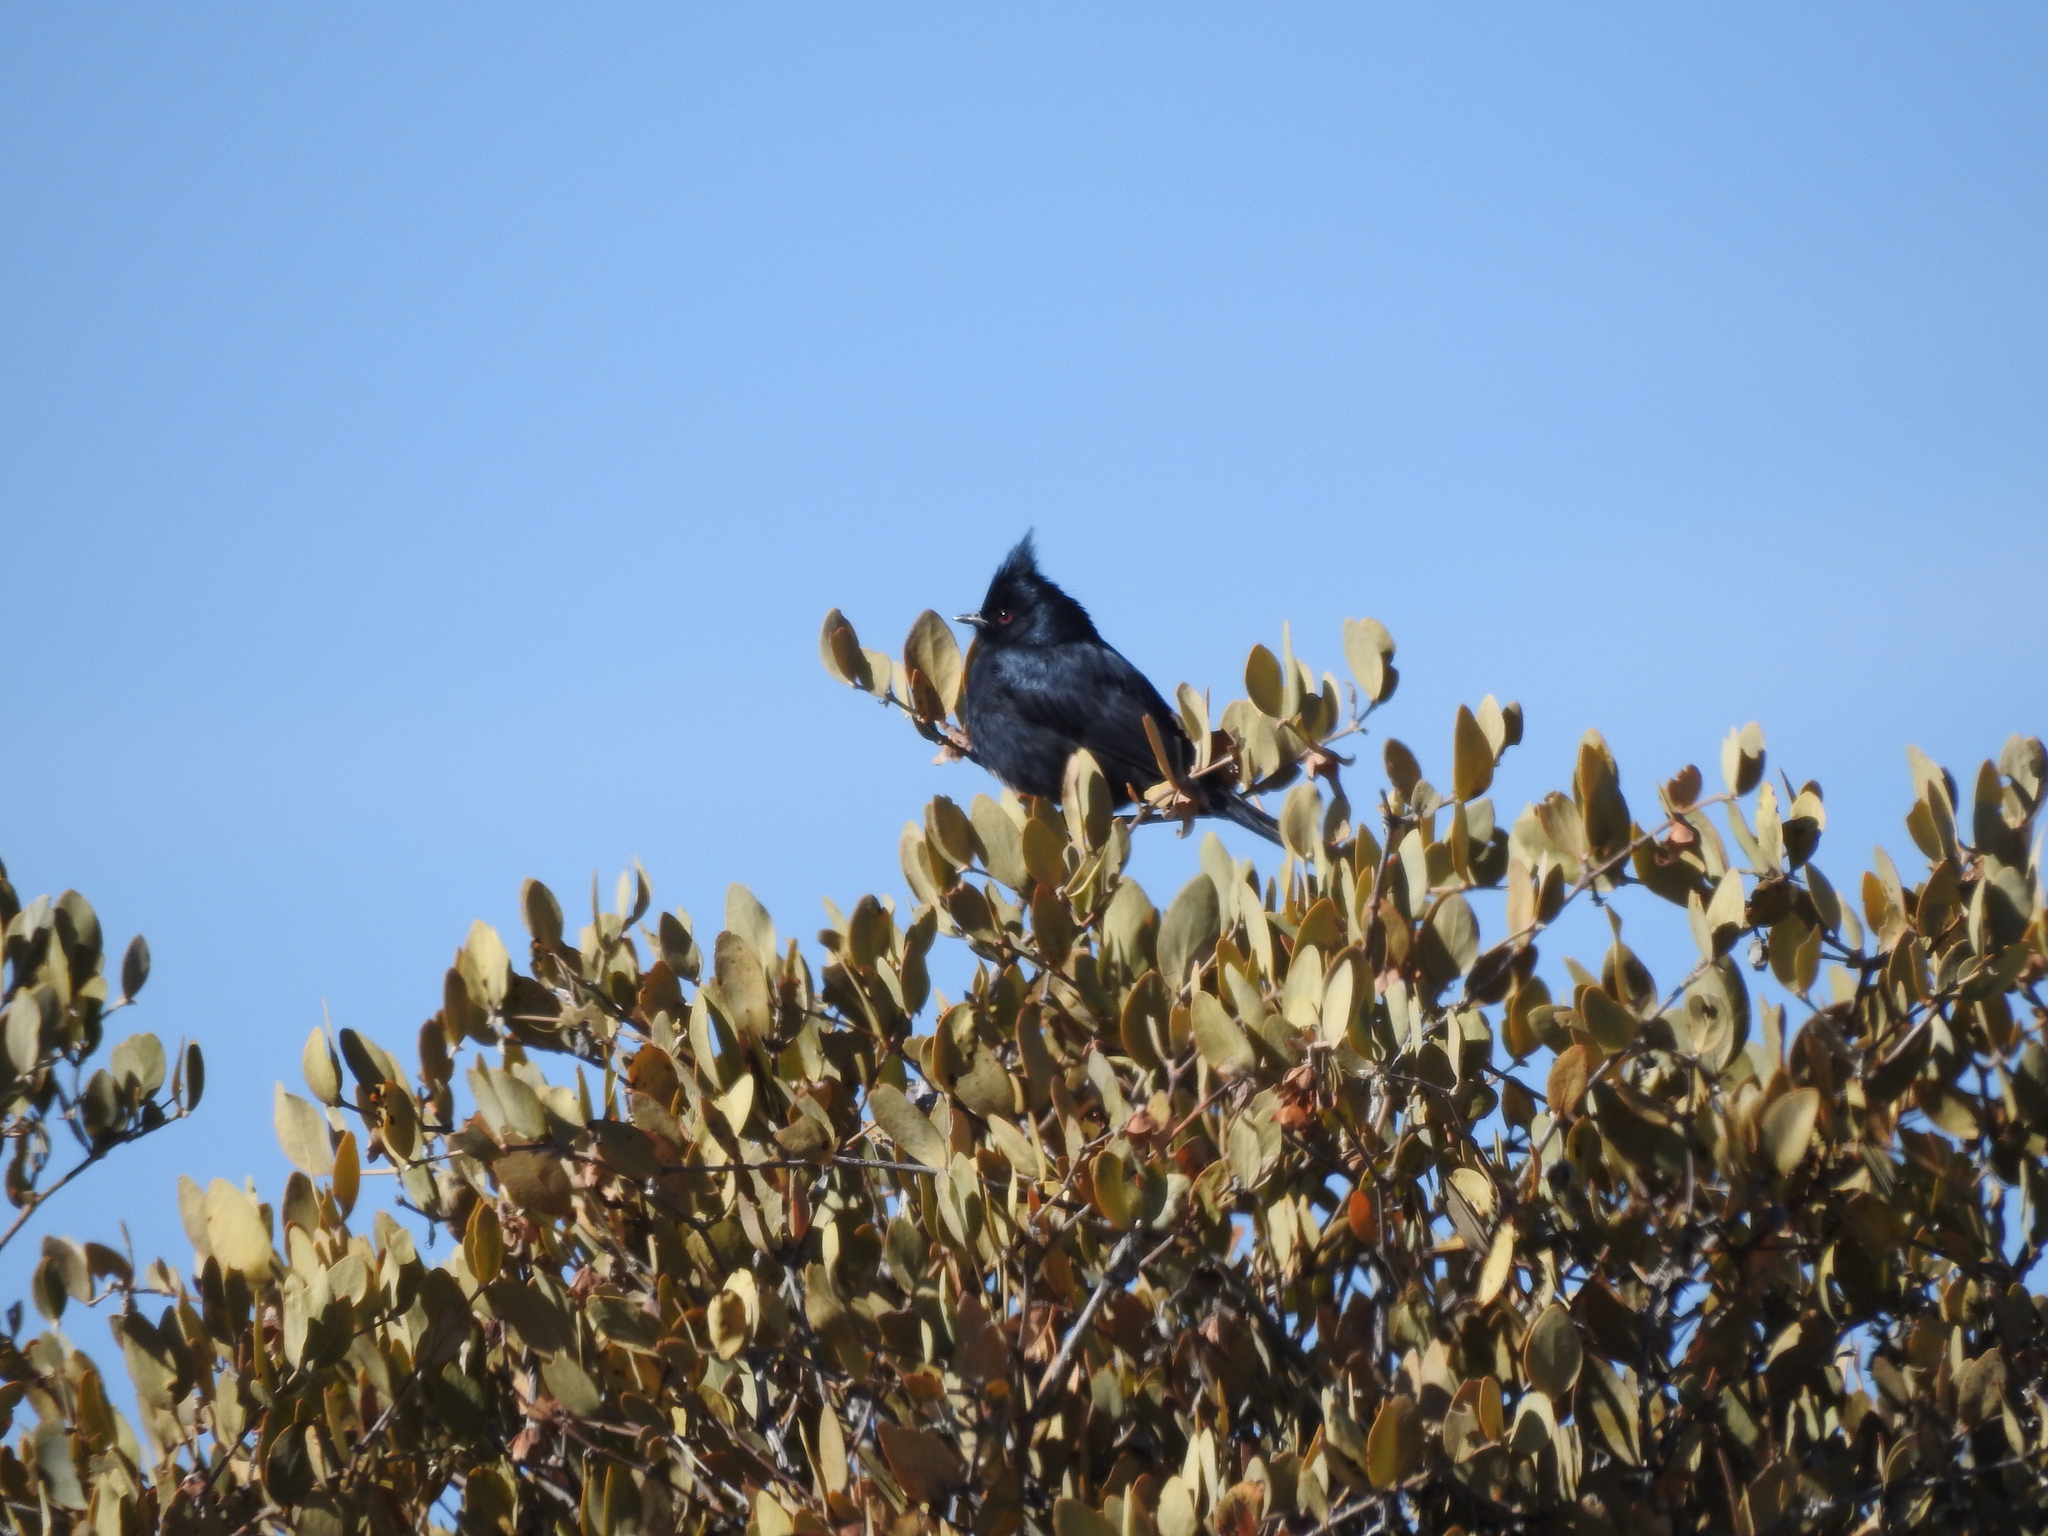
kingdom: Animalia
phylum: Chordata
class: Aves
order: Passeriformes
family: Ptilogonatidae
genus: Phainopepla
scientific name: Phainopepla nitens
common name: Phainopepla
